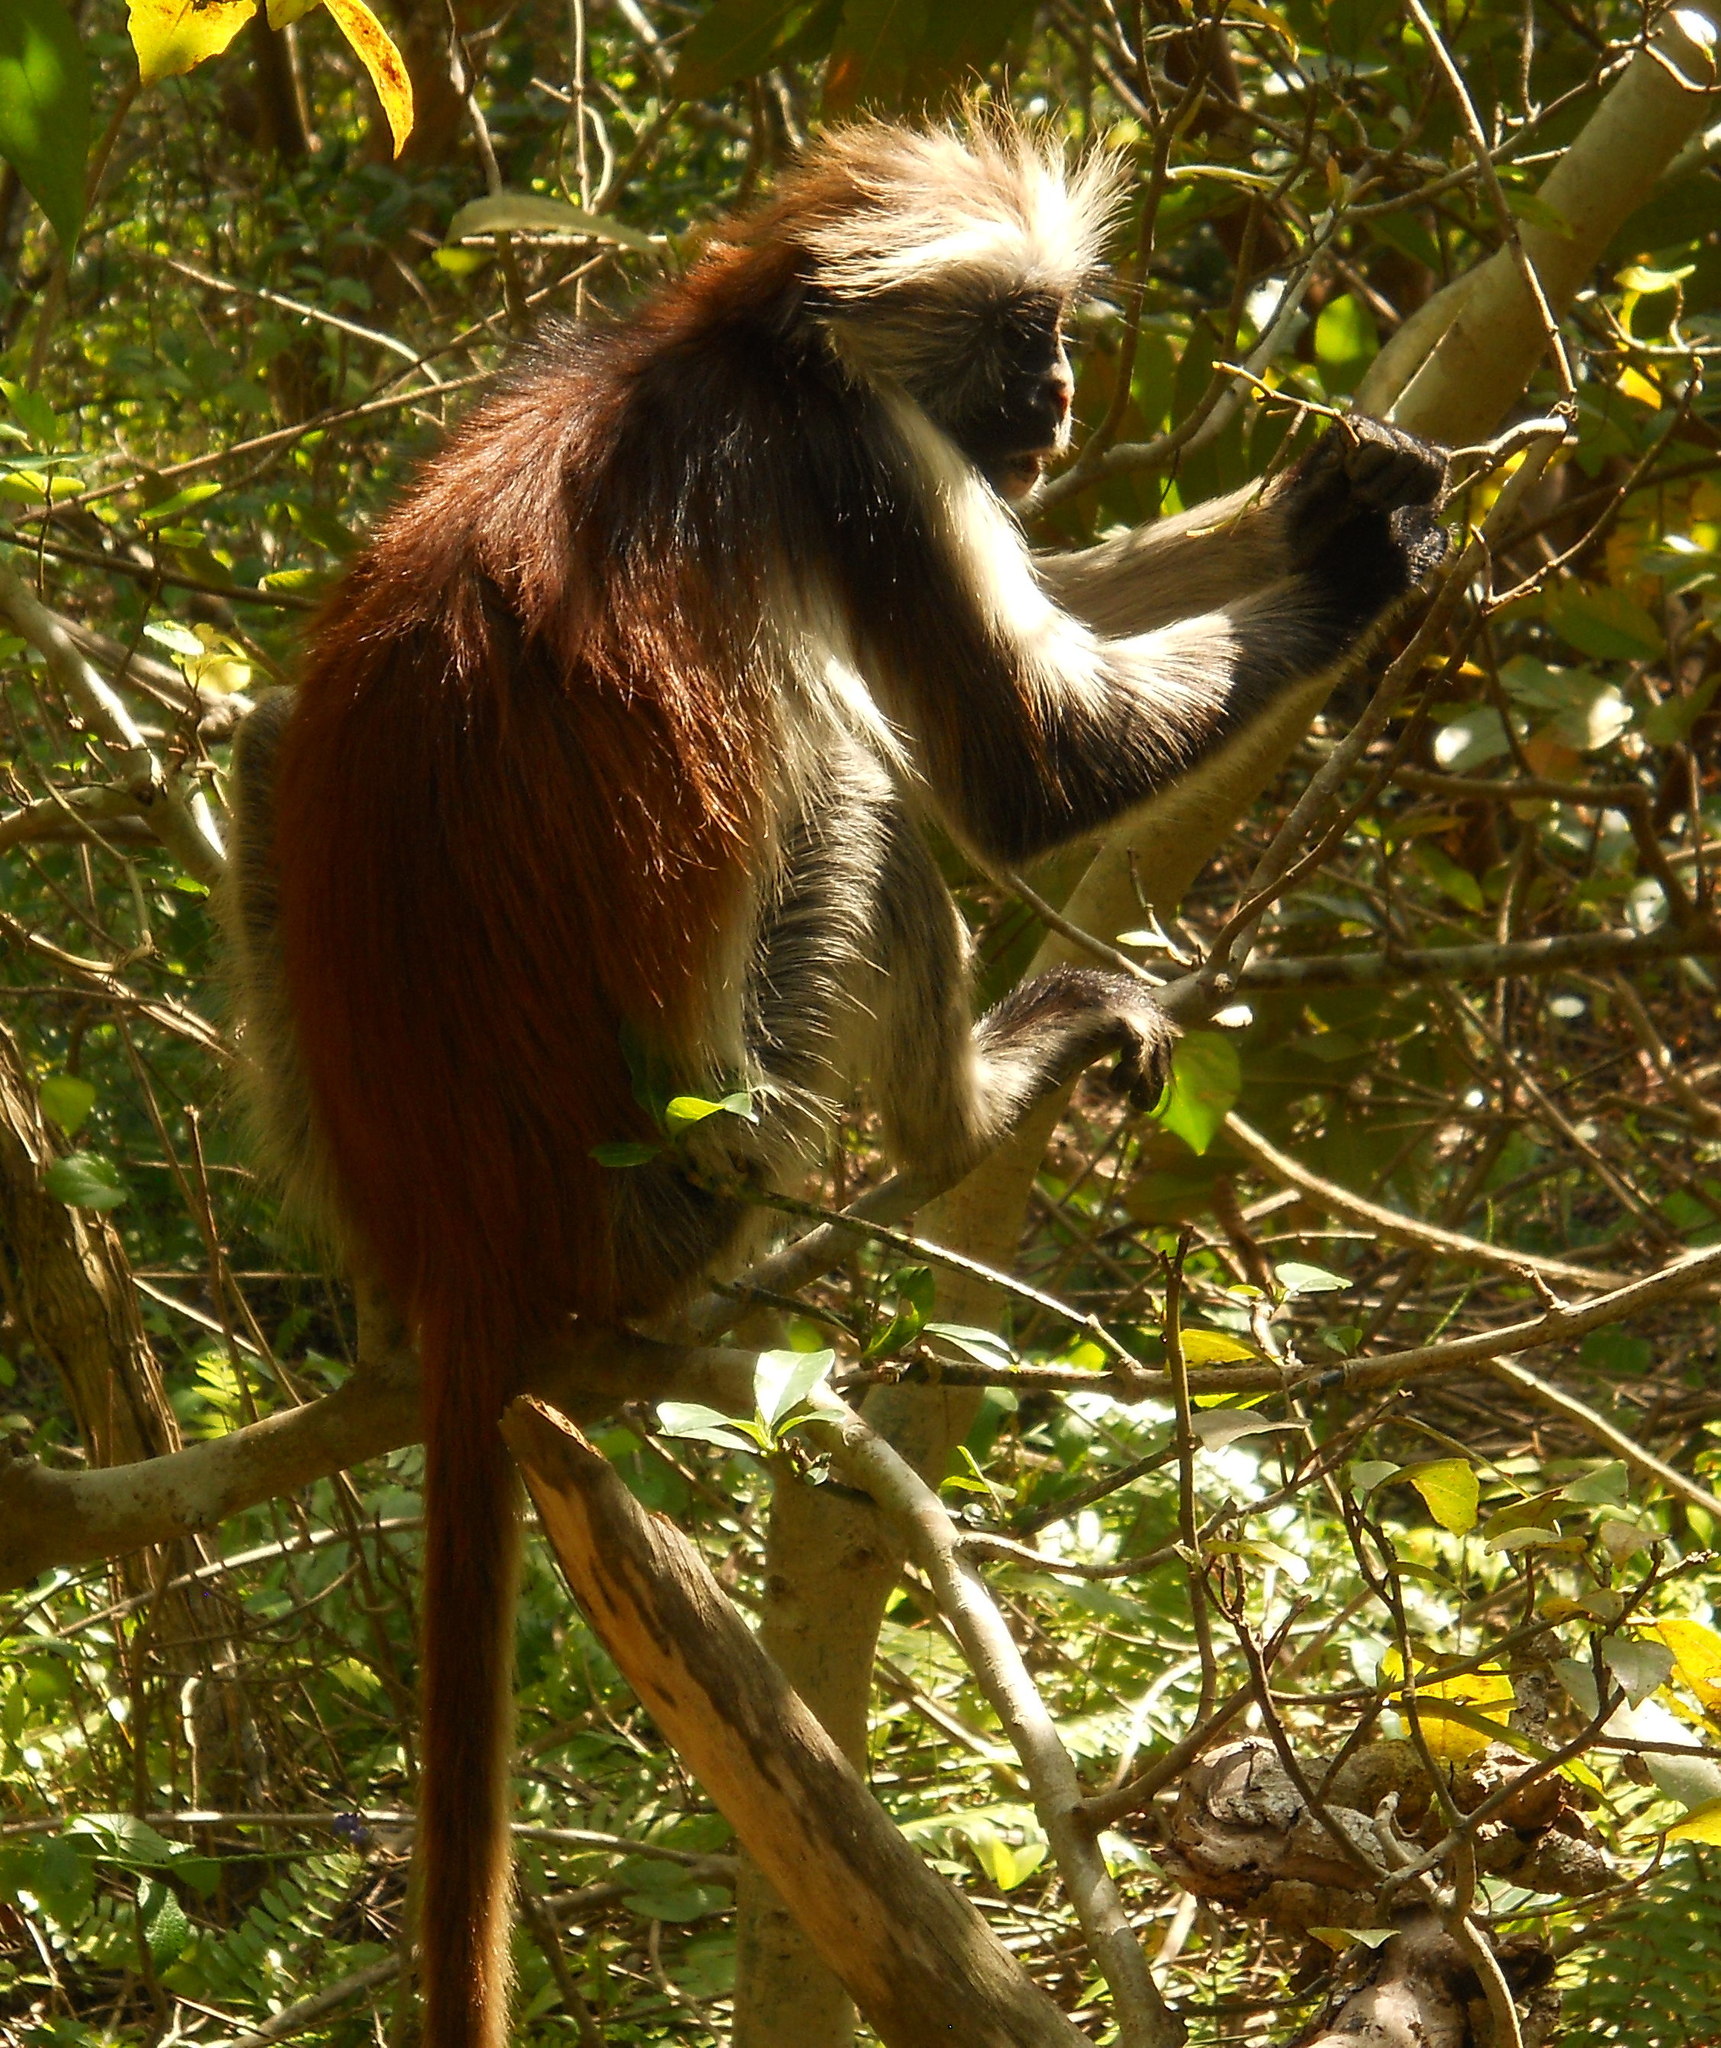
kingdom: Animalia
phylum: Chordata
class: Mammalia
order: Primates
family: Cercopithecidae
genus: Piliocolobus
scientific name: Piliocolobus kirkii
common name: Zanzibar red colobus
